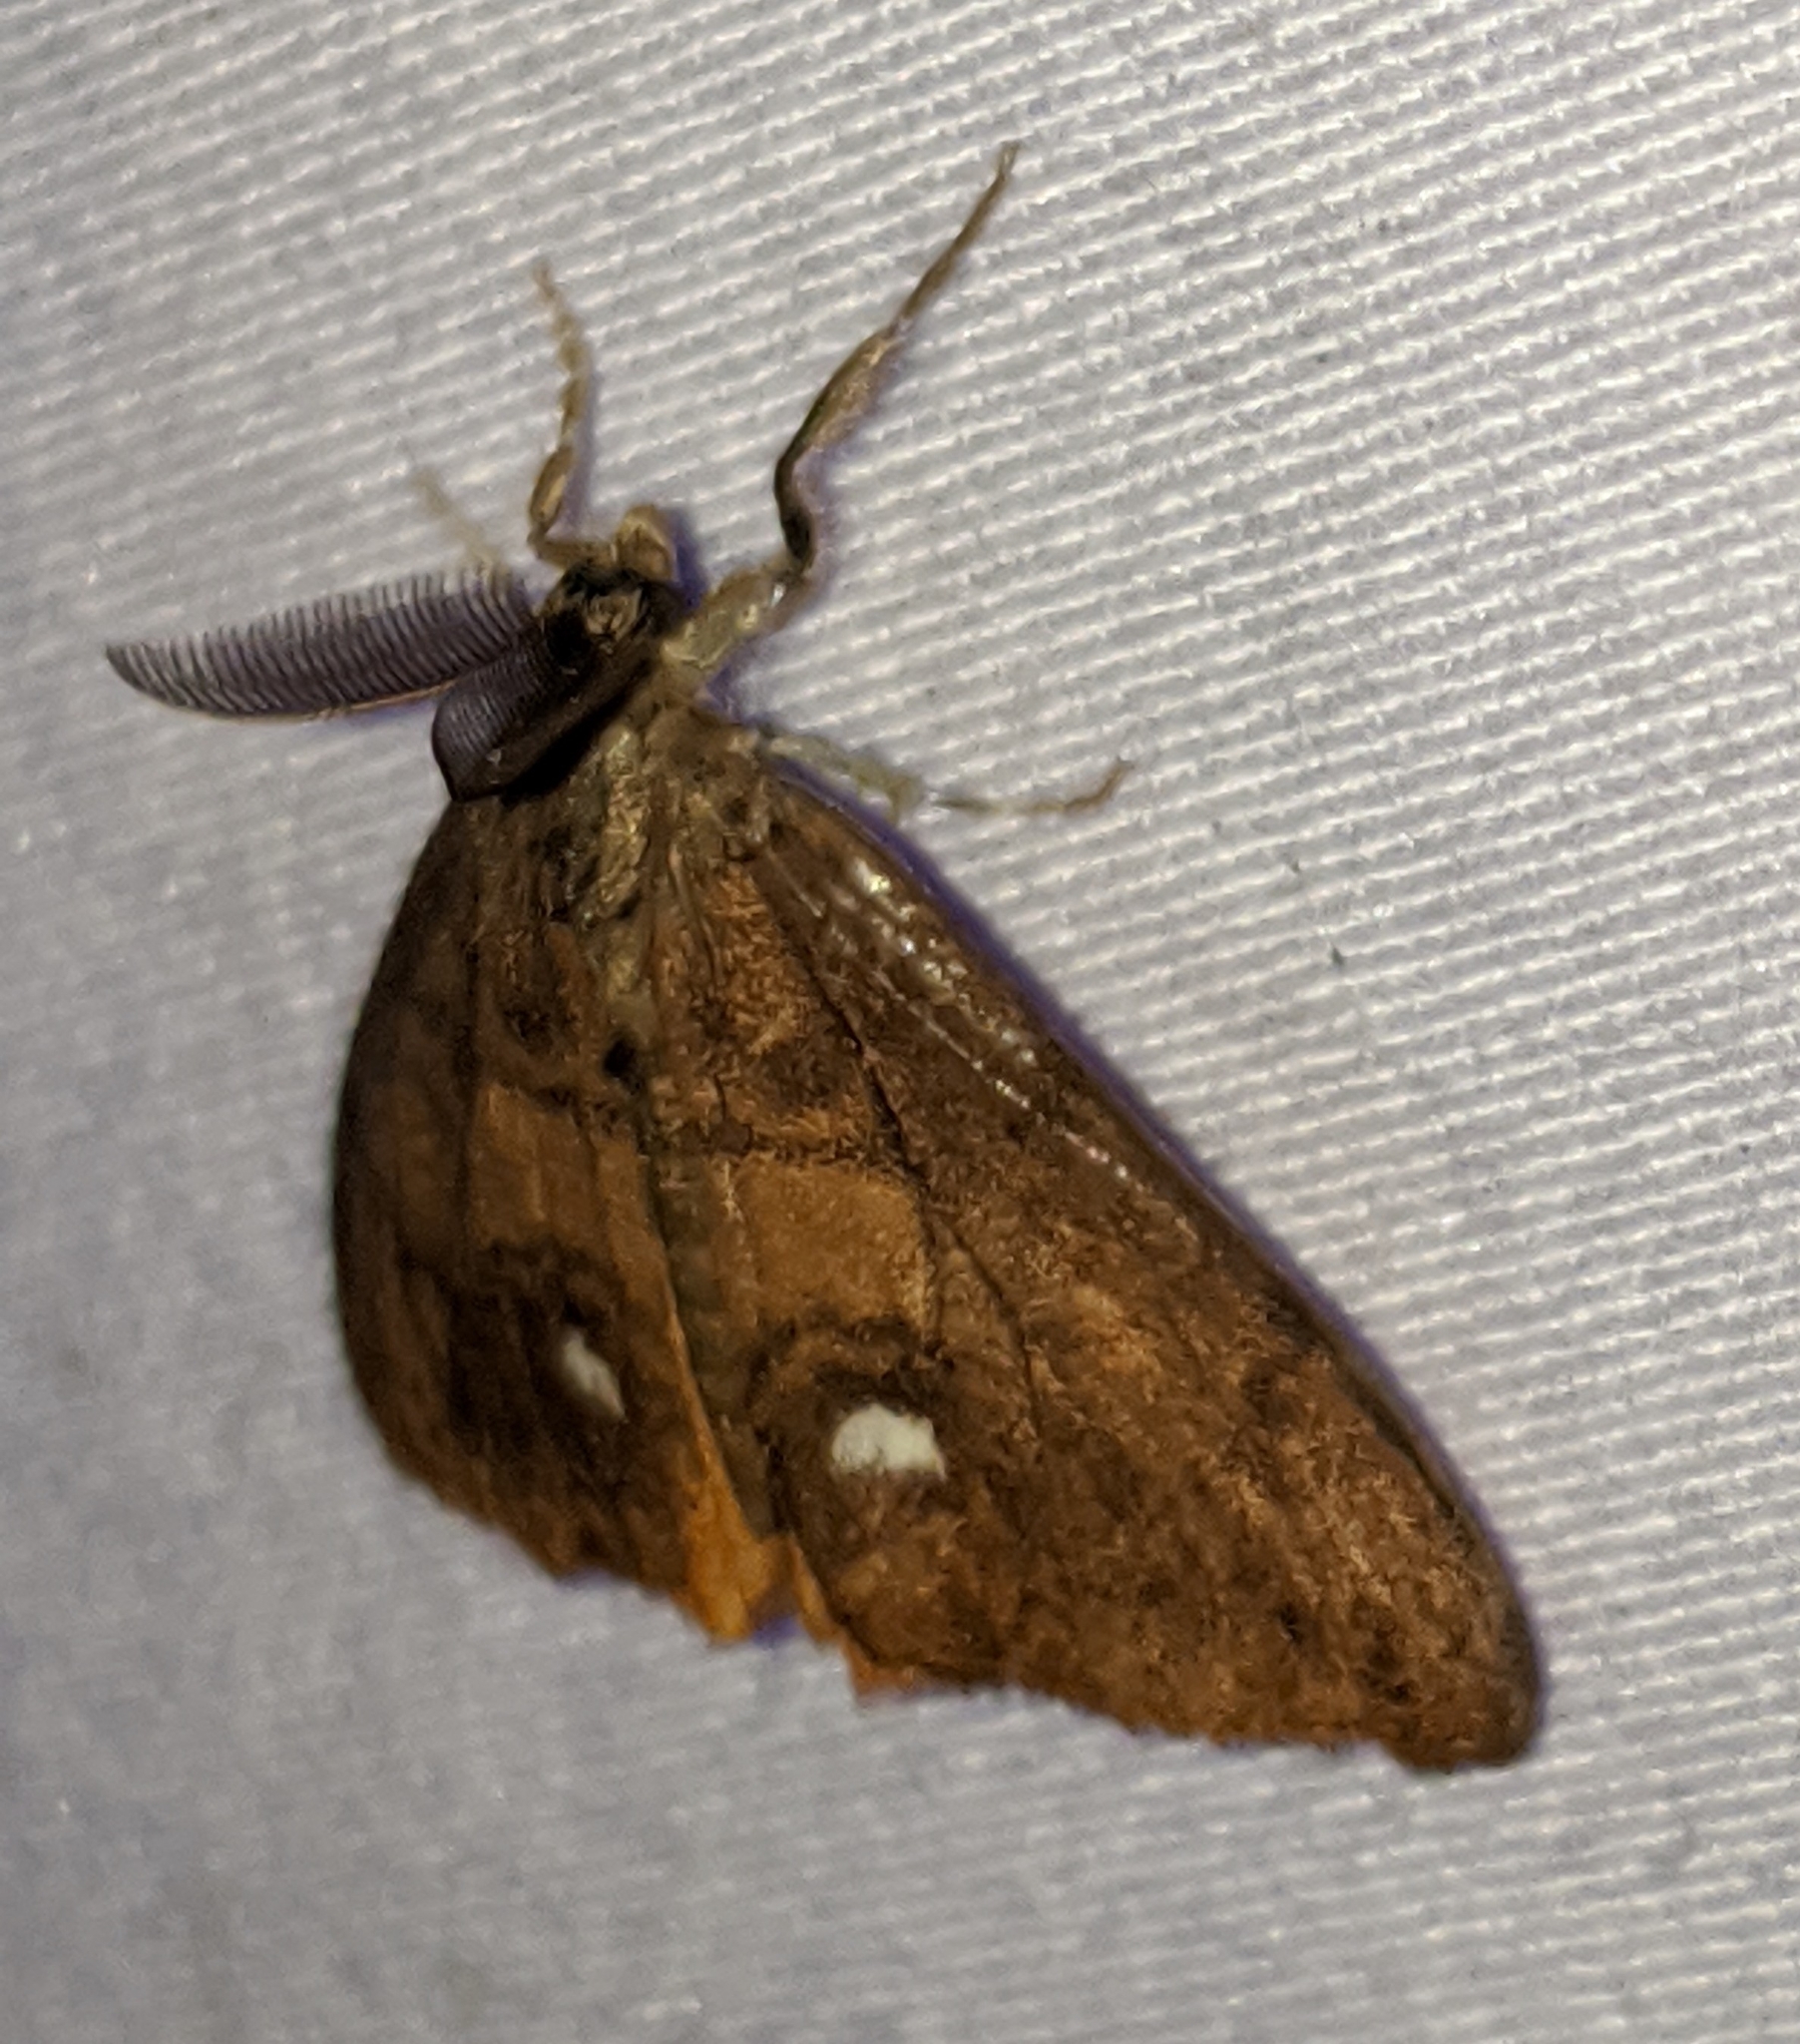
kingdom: Animalia
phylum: Arthropoda
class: Insecta
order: Lepidoptera
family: Erebidae
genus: Orgyia
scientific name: Orgyia antiqua
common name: Vapourer
